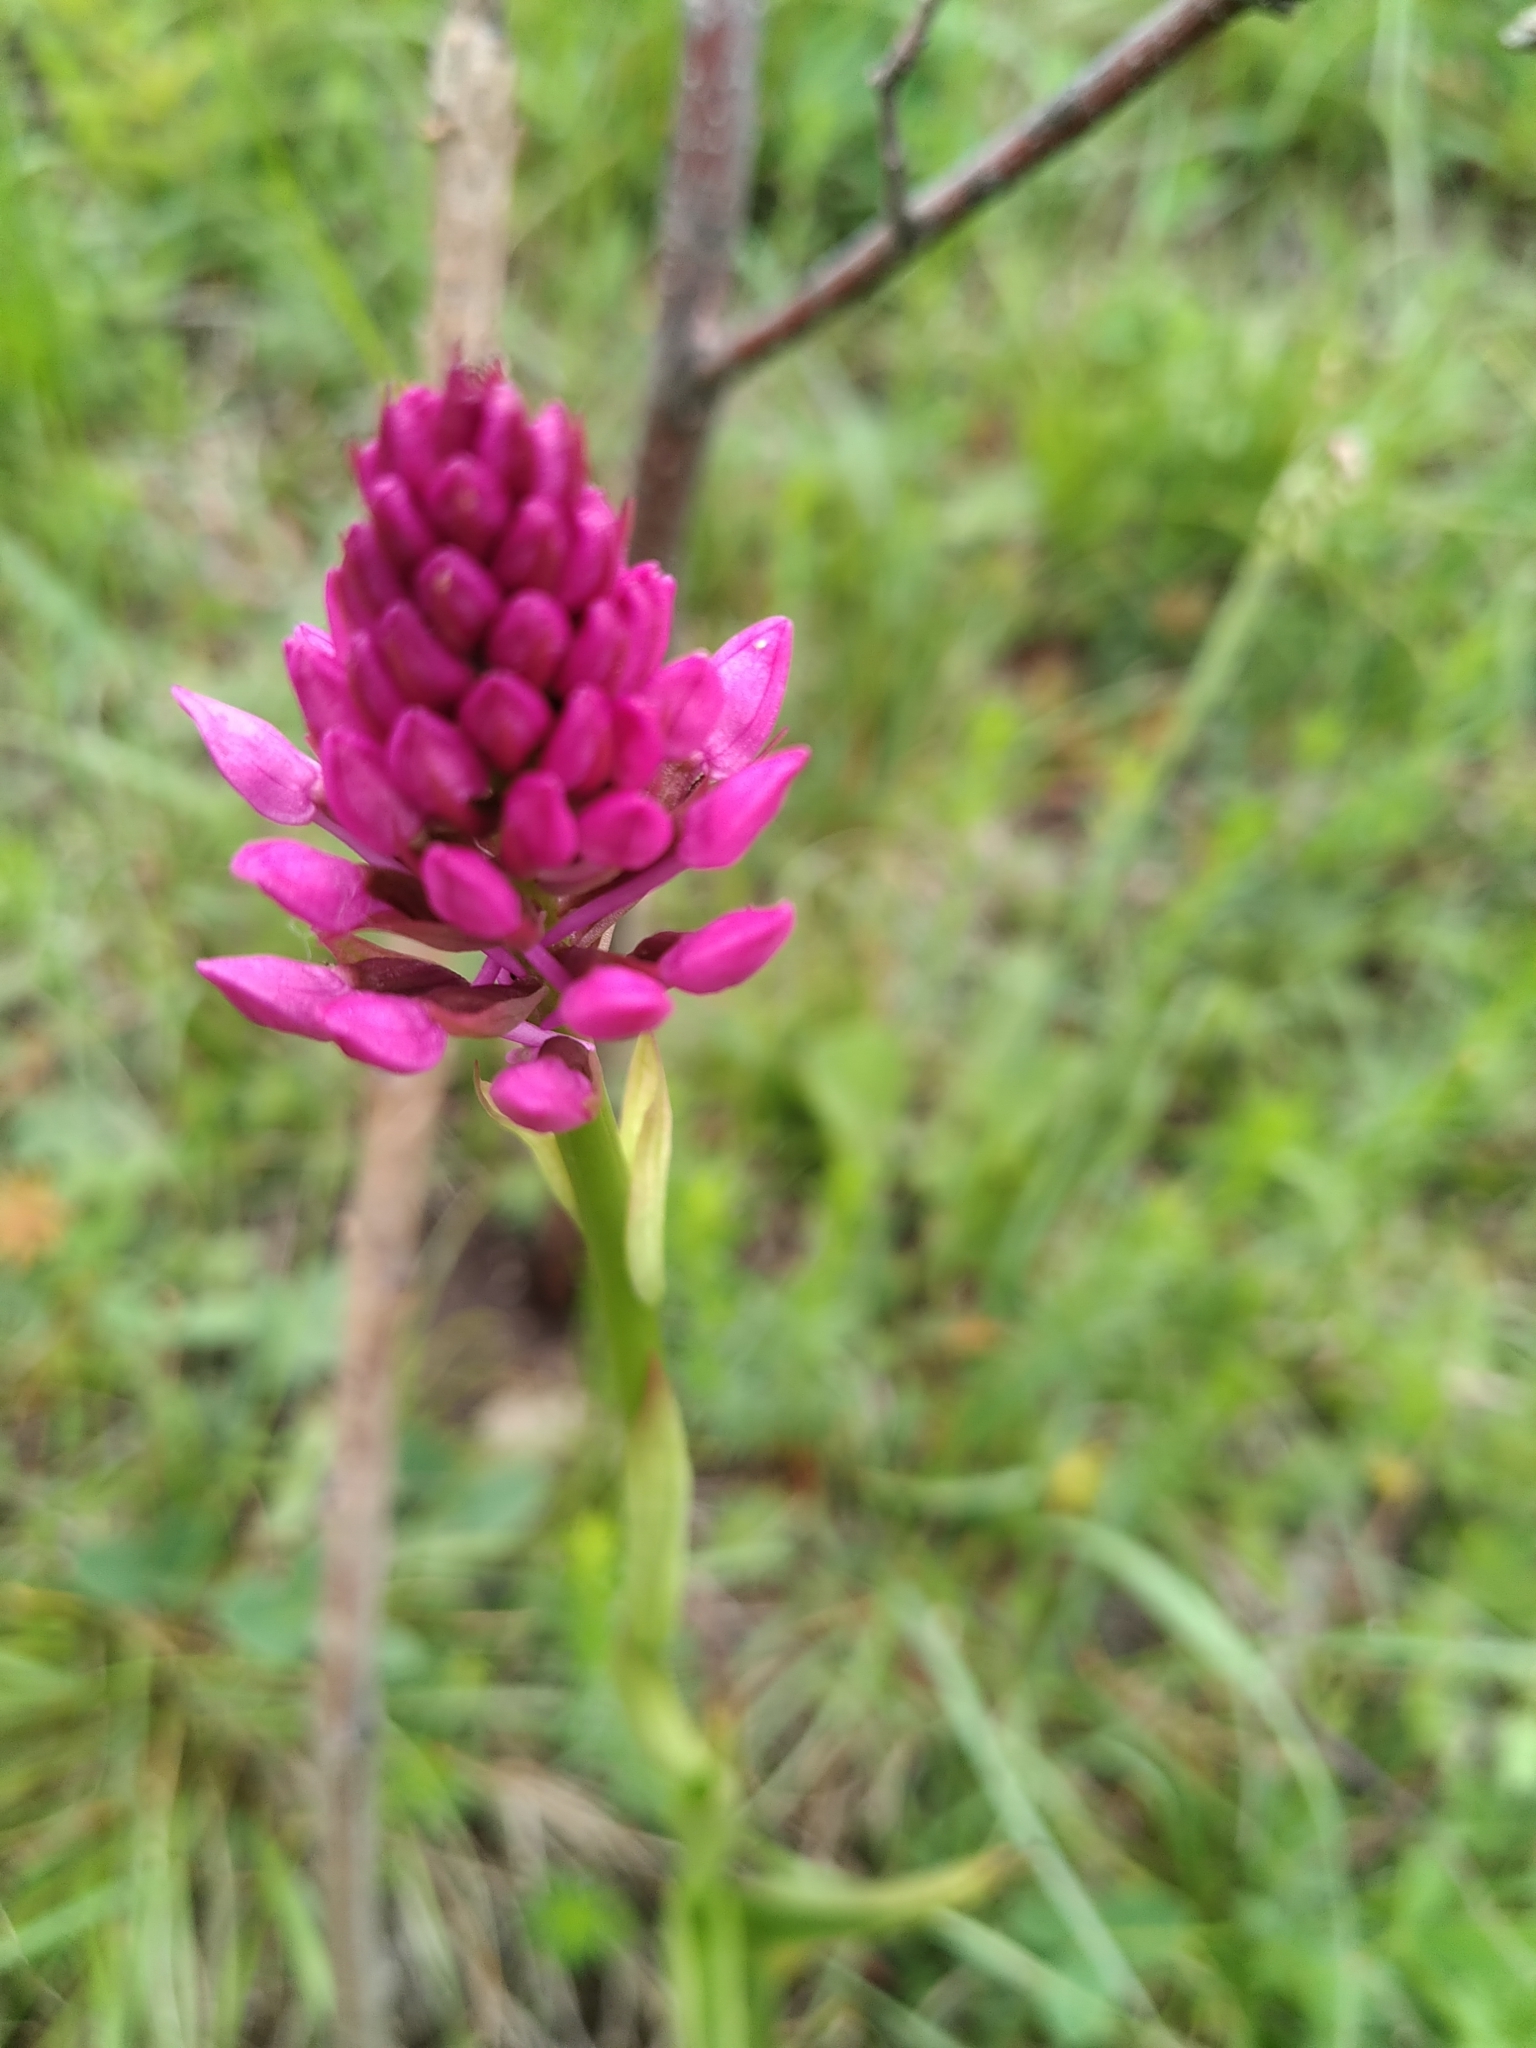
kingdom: Plantae
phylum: Tracheophyta
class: Liliopsida
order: Asparagales
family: Orchidaceae
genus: Anacamptis
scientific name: Anacamptis pyramidalis
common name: Pyramidal orchid
